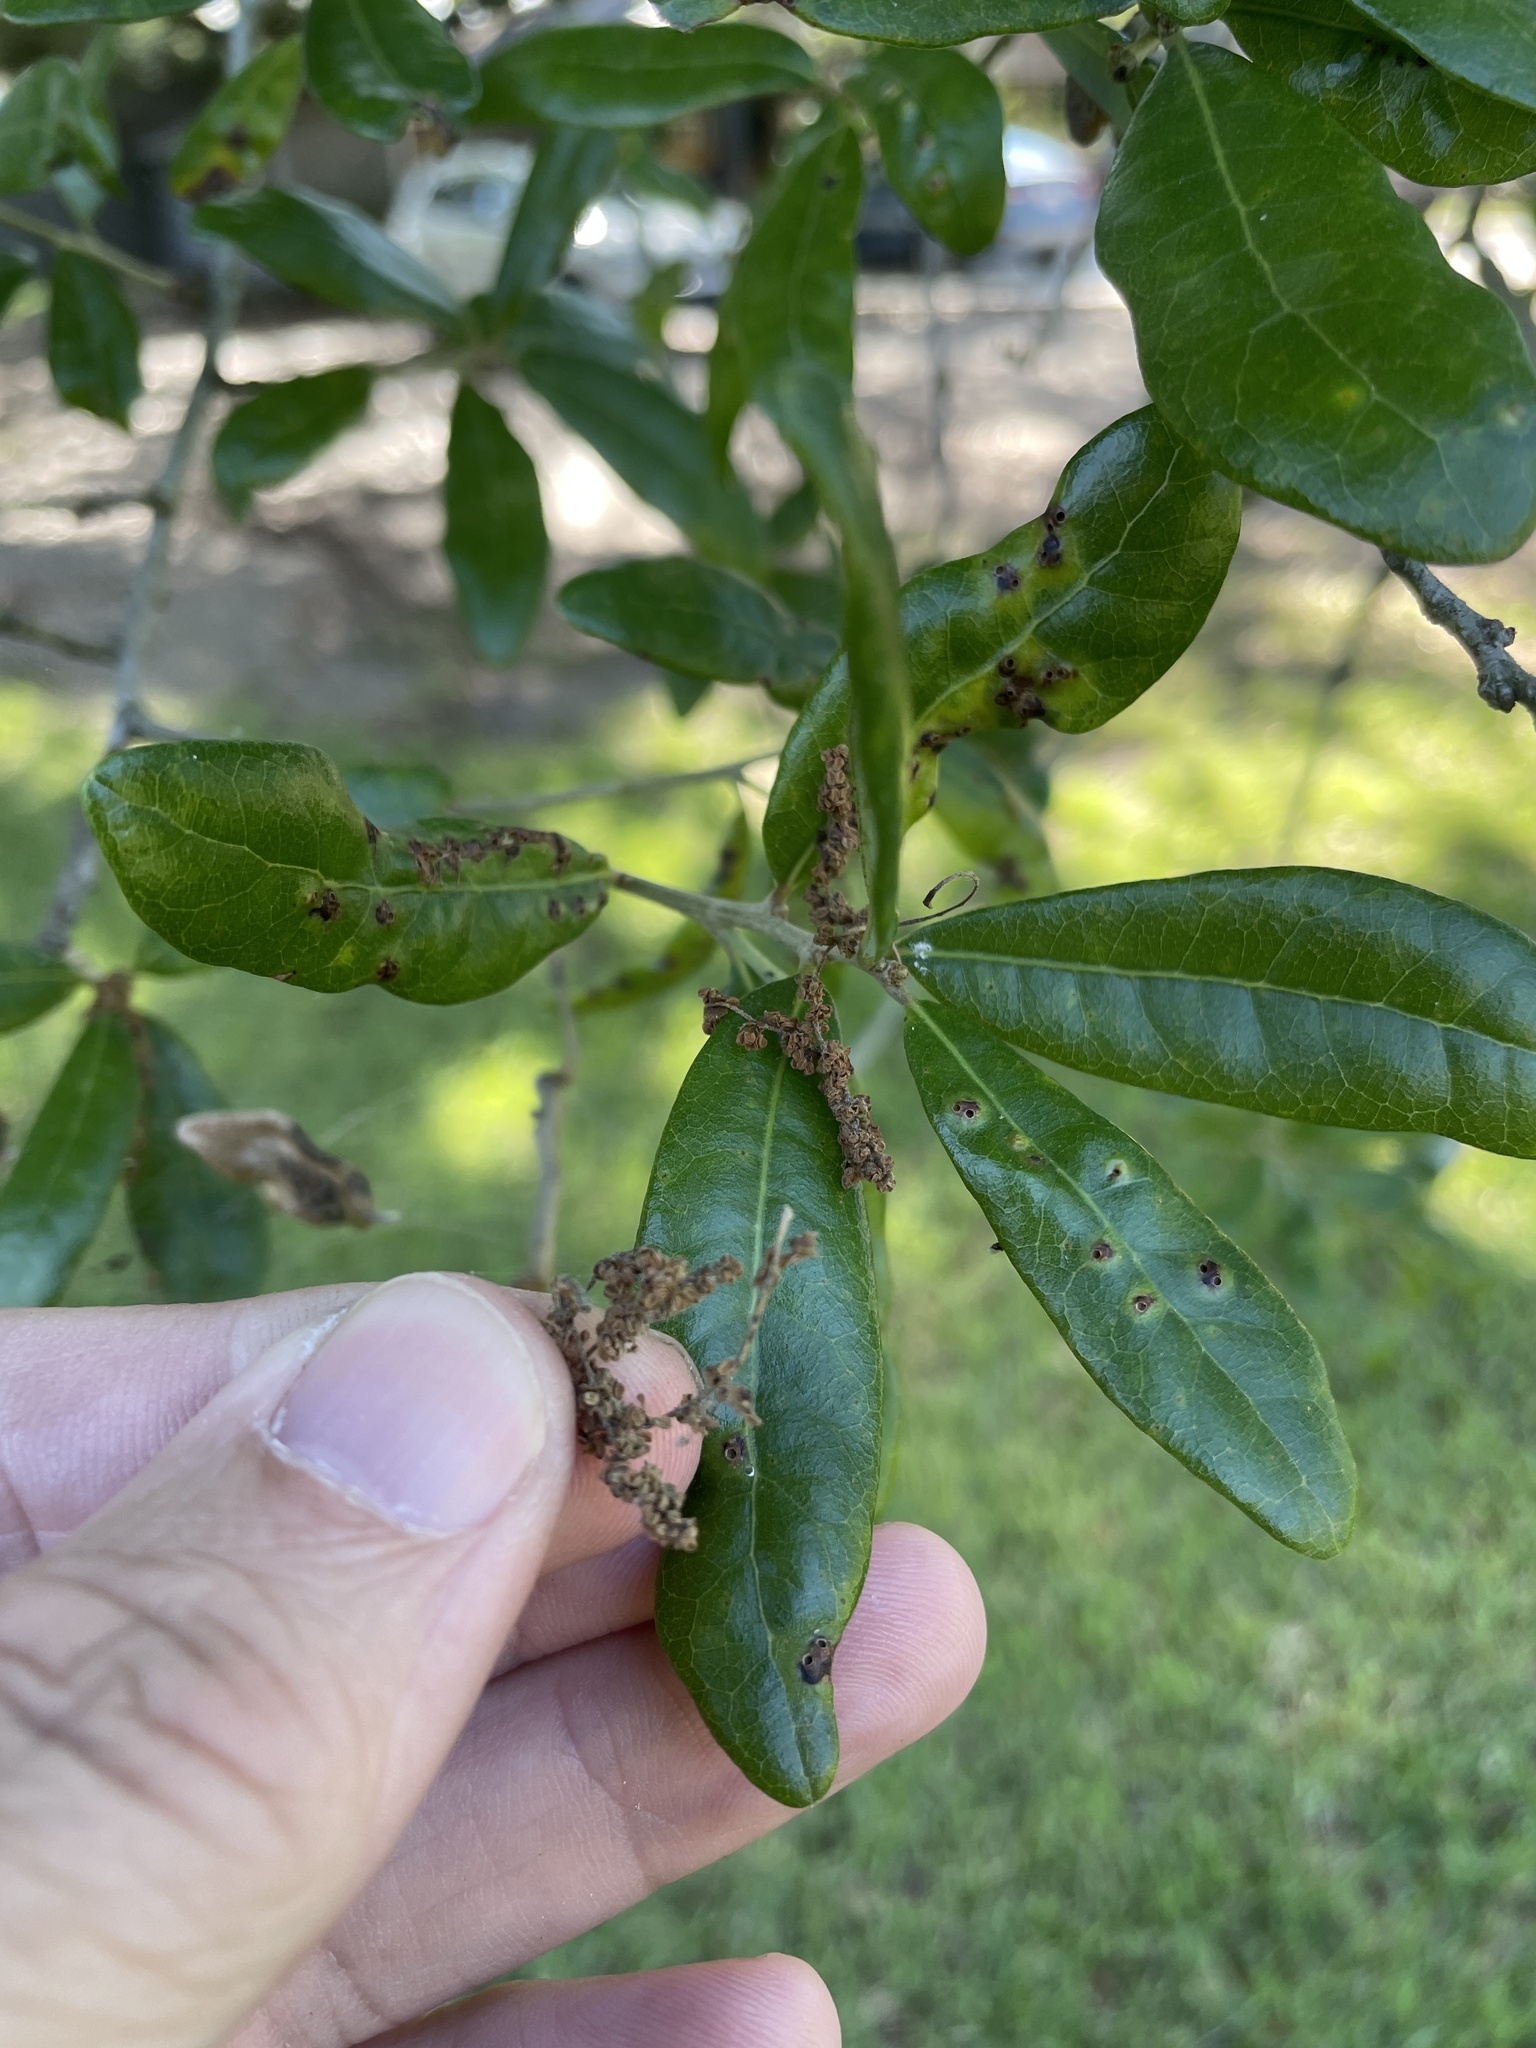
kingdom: Plantae
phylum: Tracheophyta
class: Magnoliopsida
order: Fagales
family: Fagaceae
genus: Quercus
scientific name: Quercus virginiana
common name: Southern live oak
